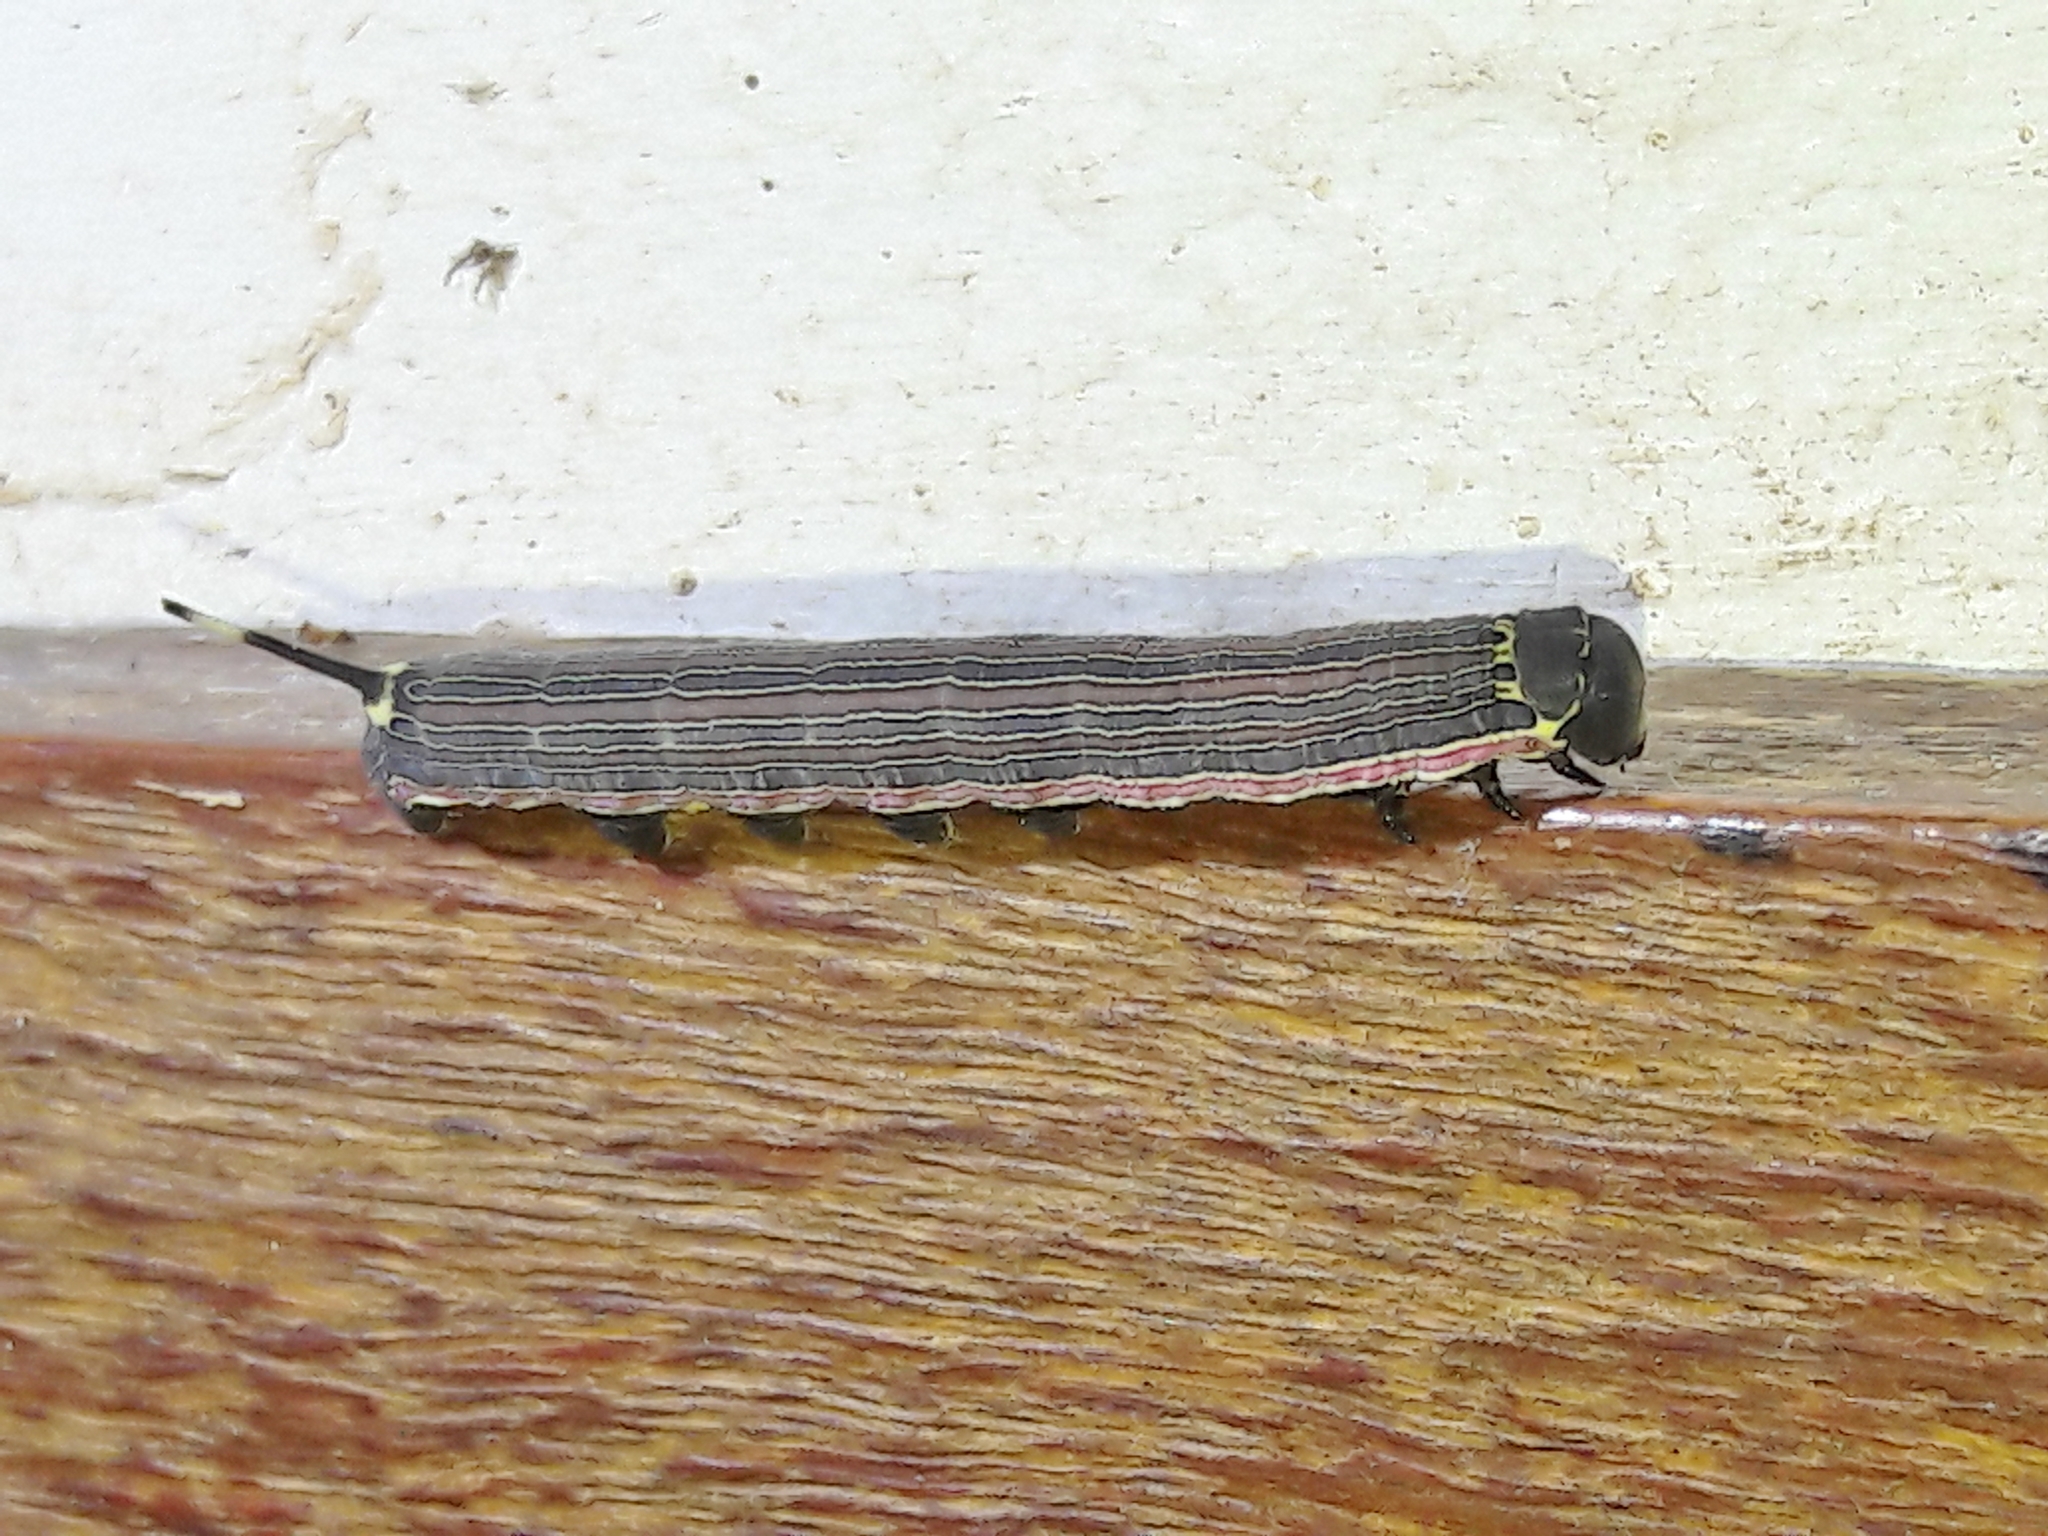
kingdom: Animalia
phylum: Arthropoda
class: Insecta
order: Lepidoptera
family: Sphingidae
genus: Isognathus
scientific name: Isognathus allamandae
